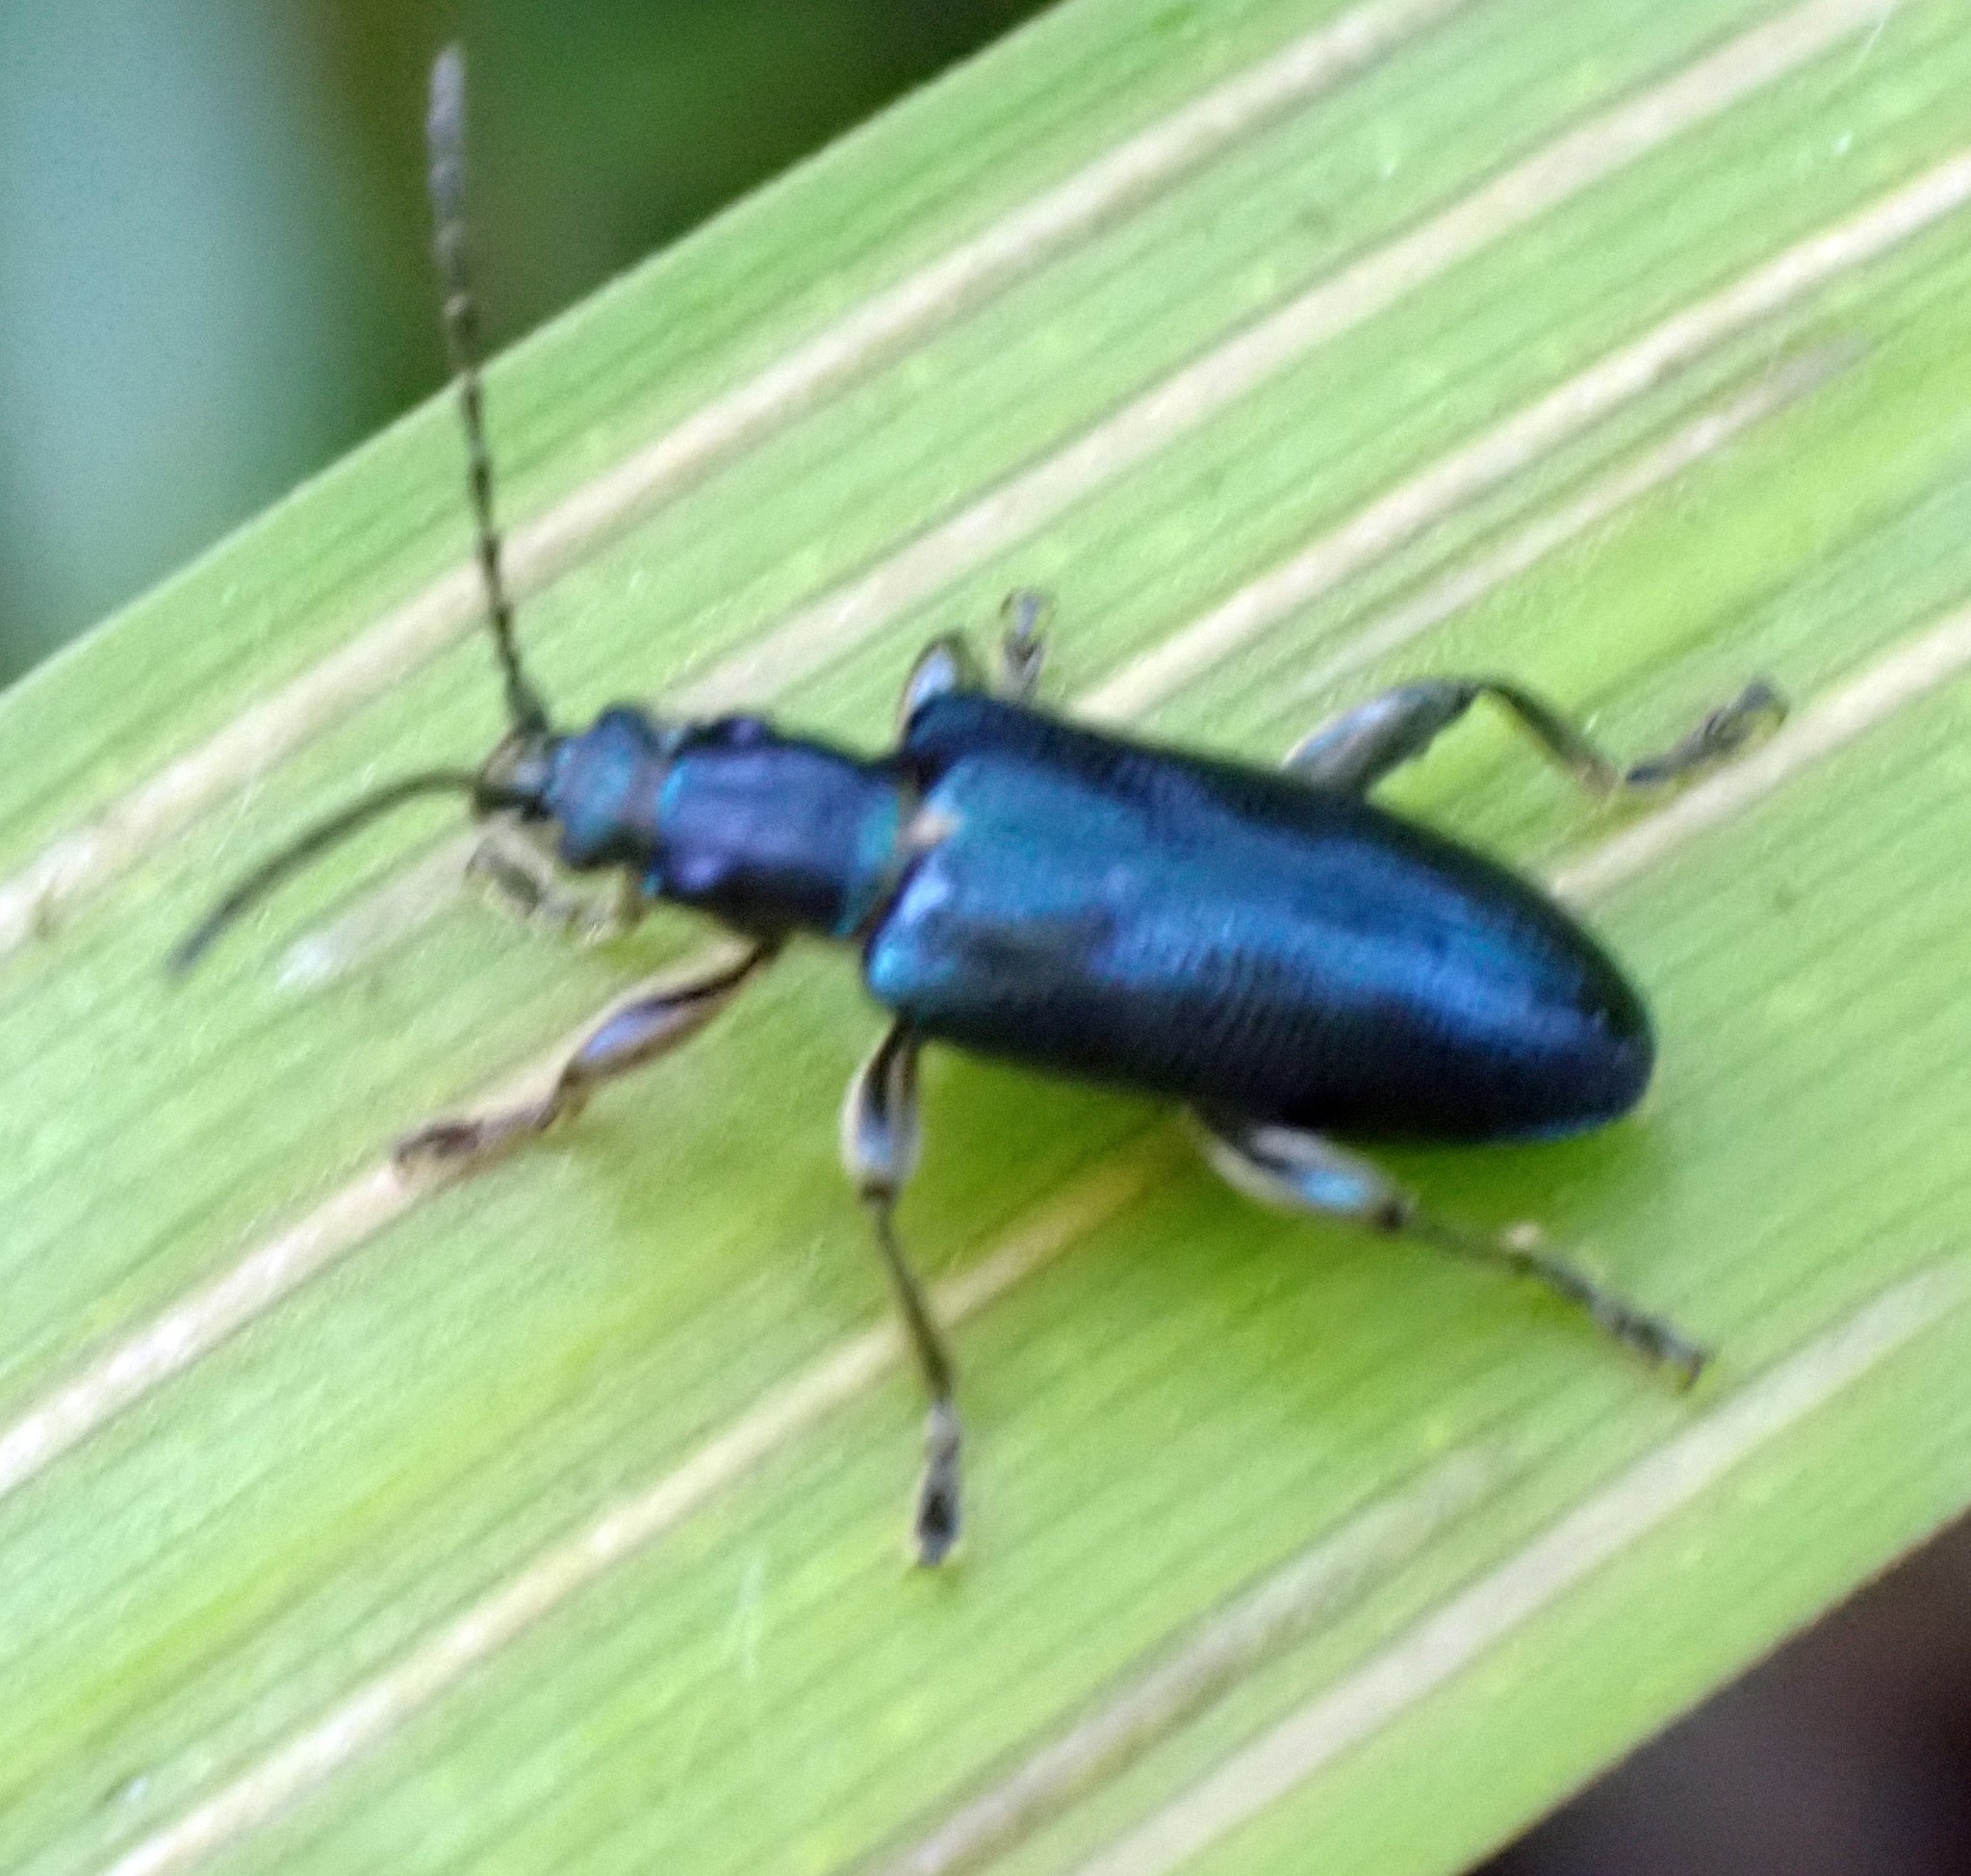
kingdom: Animalia
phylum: Arthropoda
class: Insecta
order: Coleoptera
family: Chrysomelidae
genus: Plateumaris
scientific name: Plateumaris sericea
